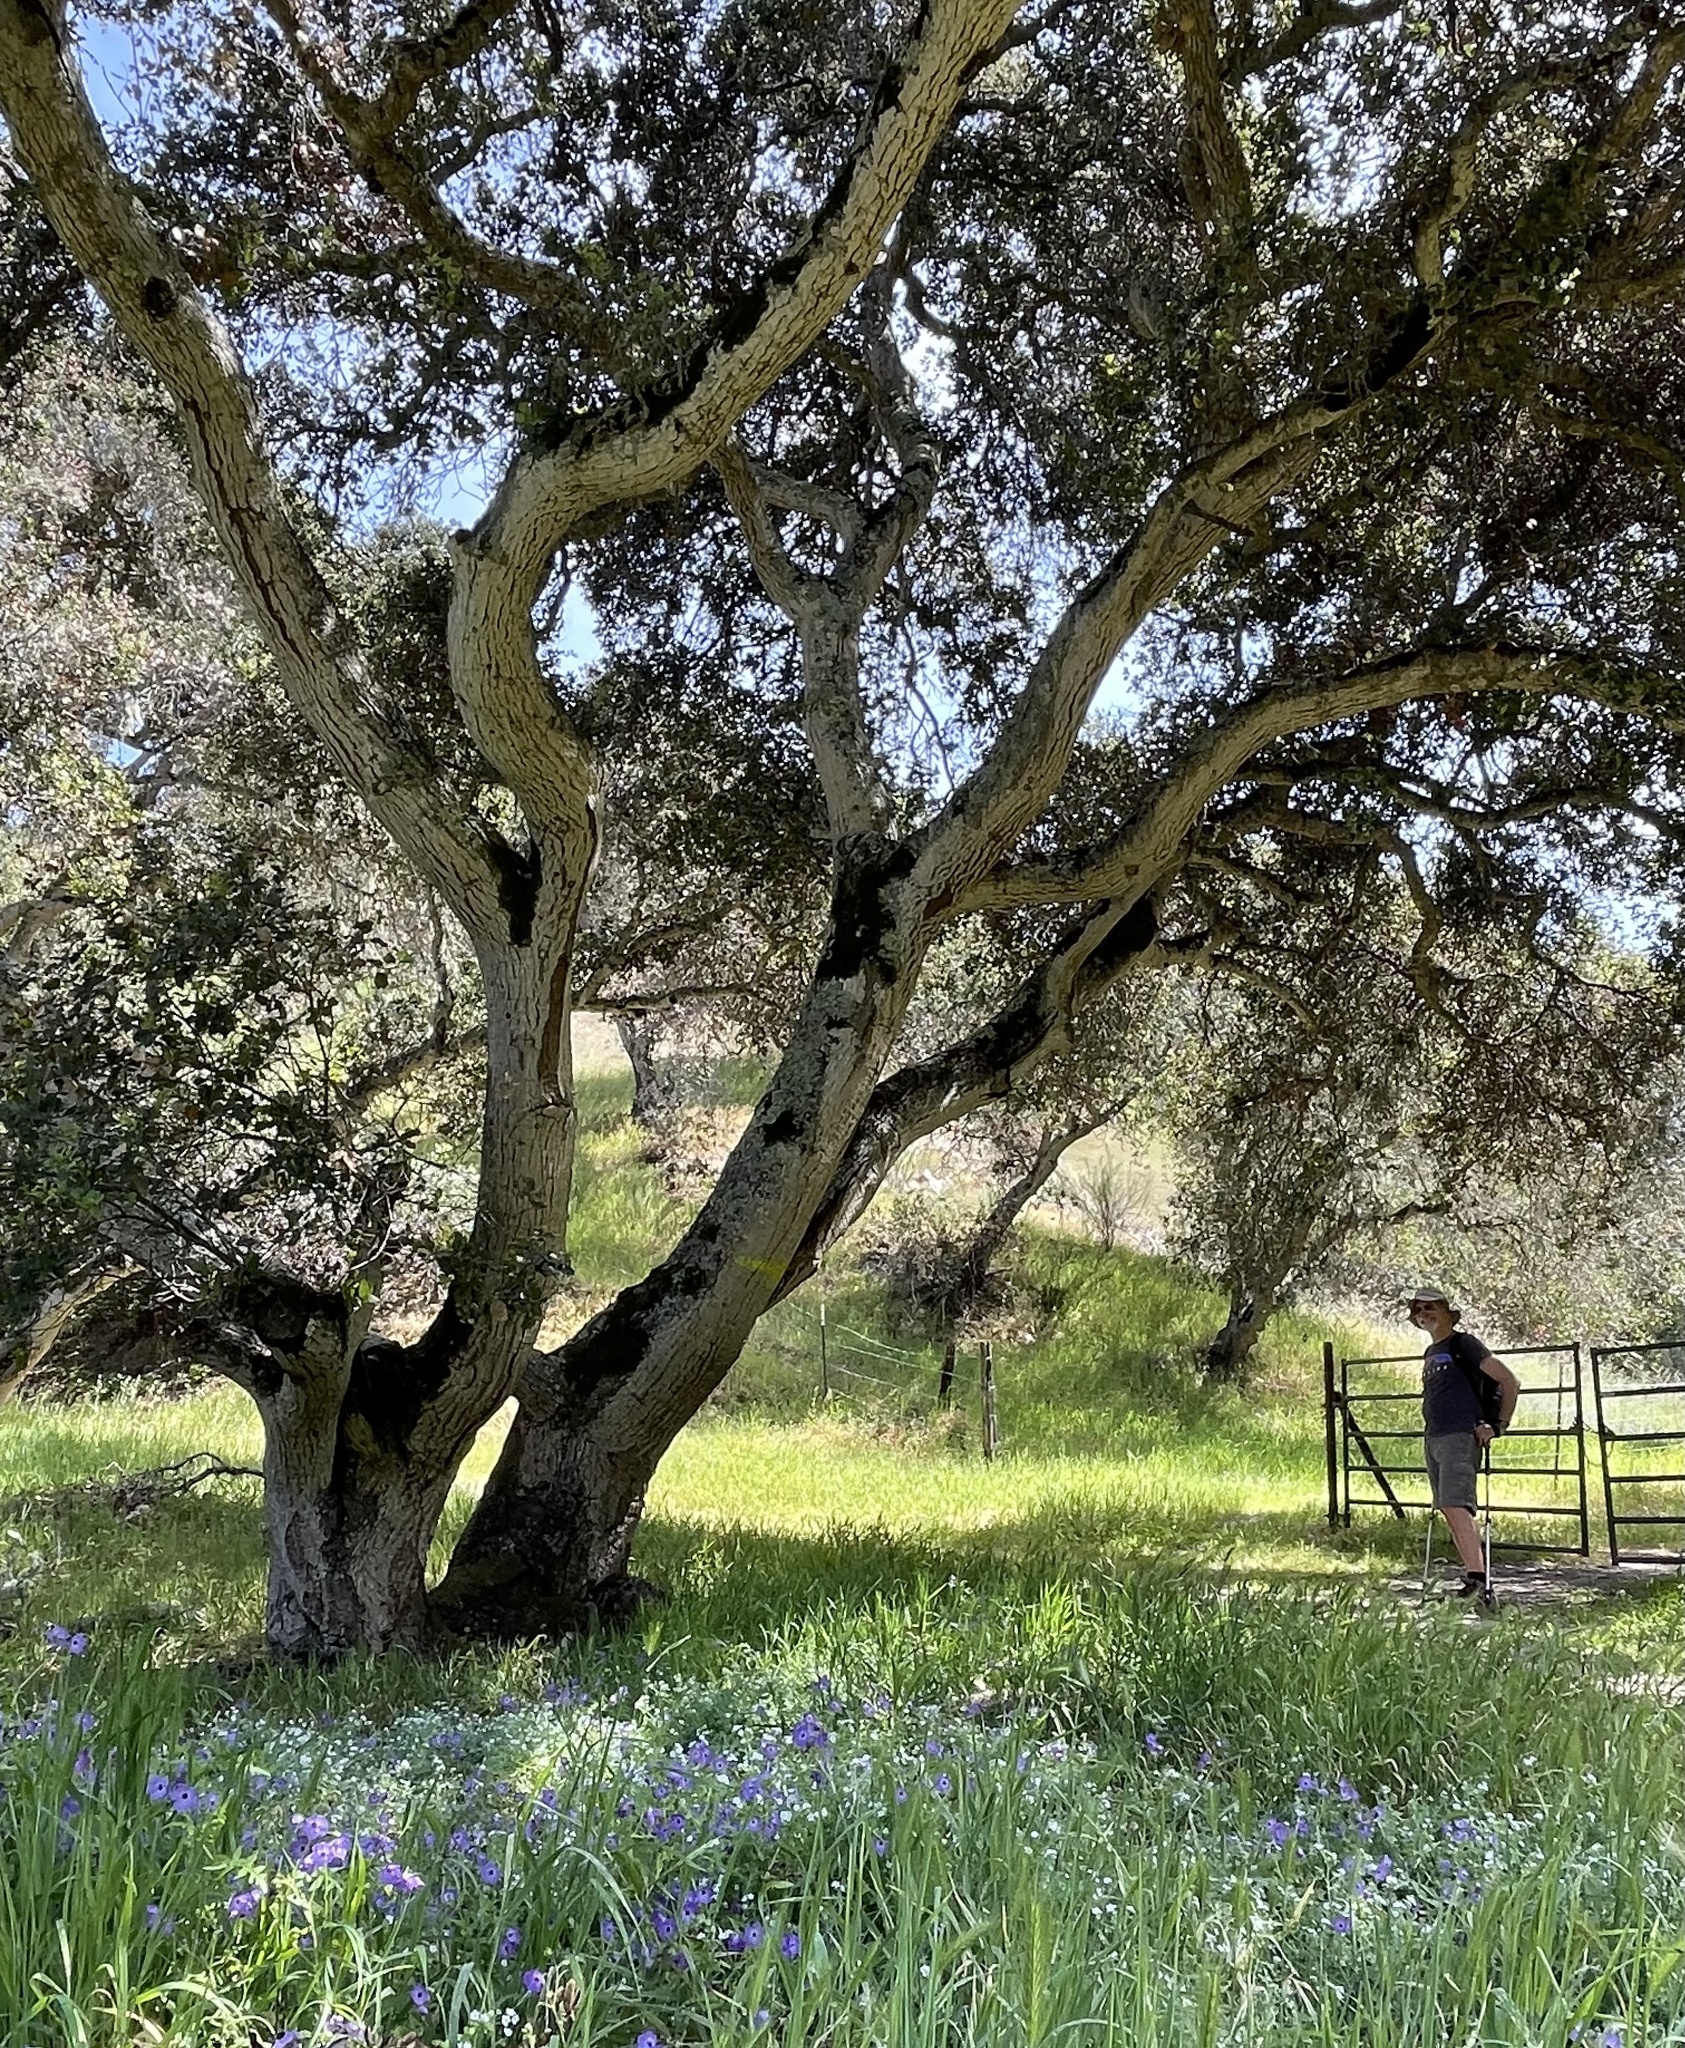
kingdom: Plantae
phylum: Tracheophyta
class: Magnoliopsida
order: Boraginales
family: Hydrophyllaceae
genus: Pholistoma
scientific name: Pholistoma auritum
